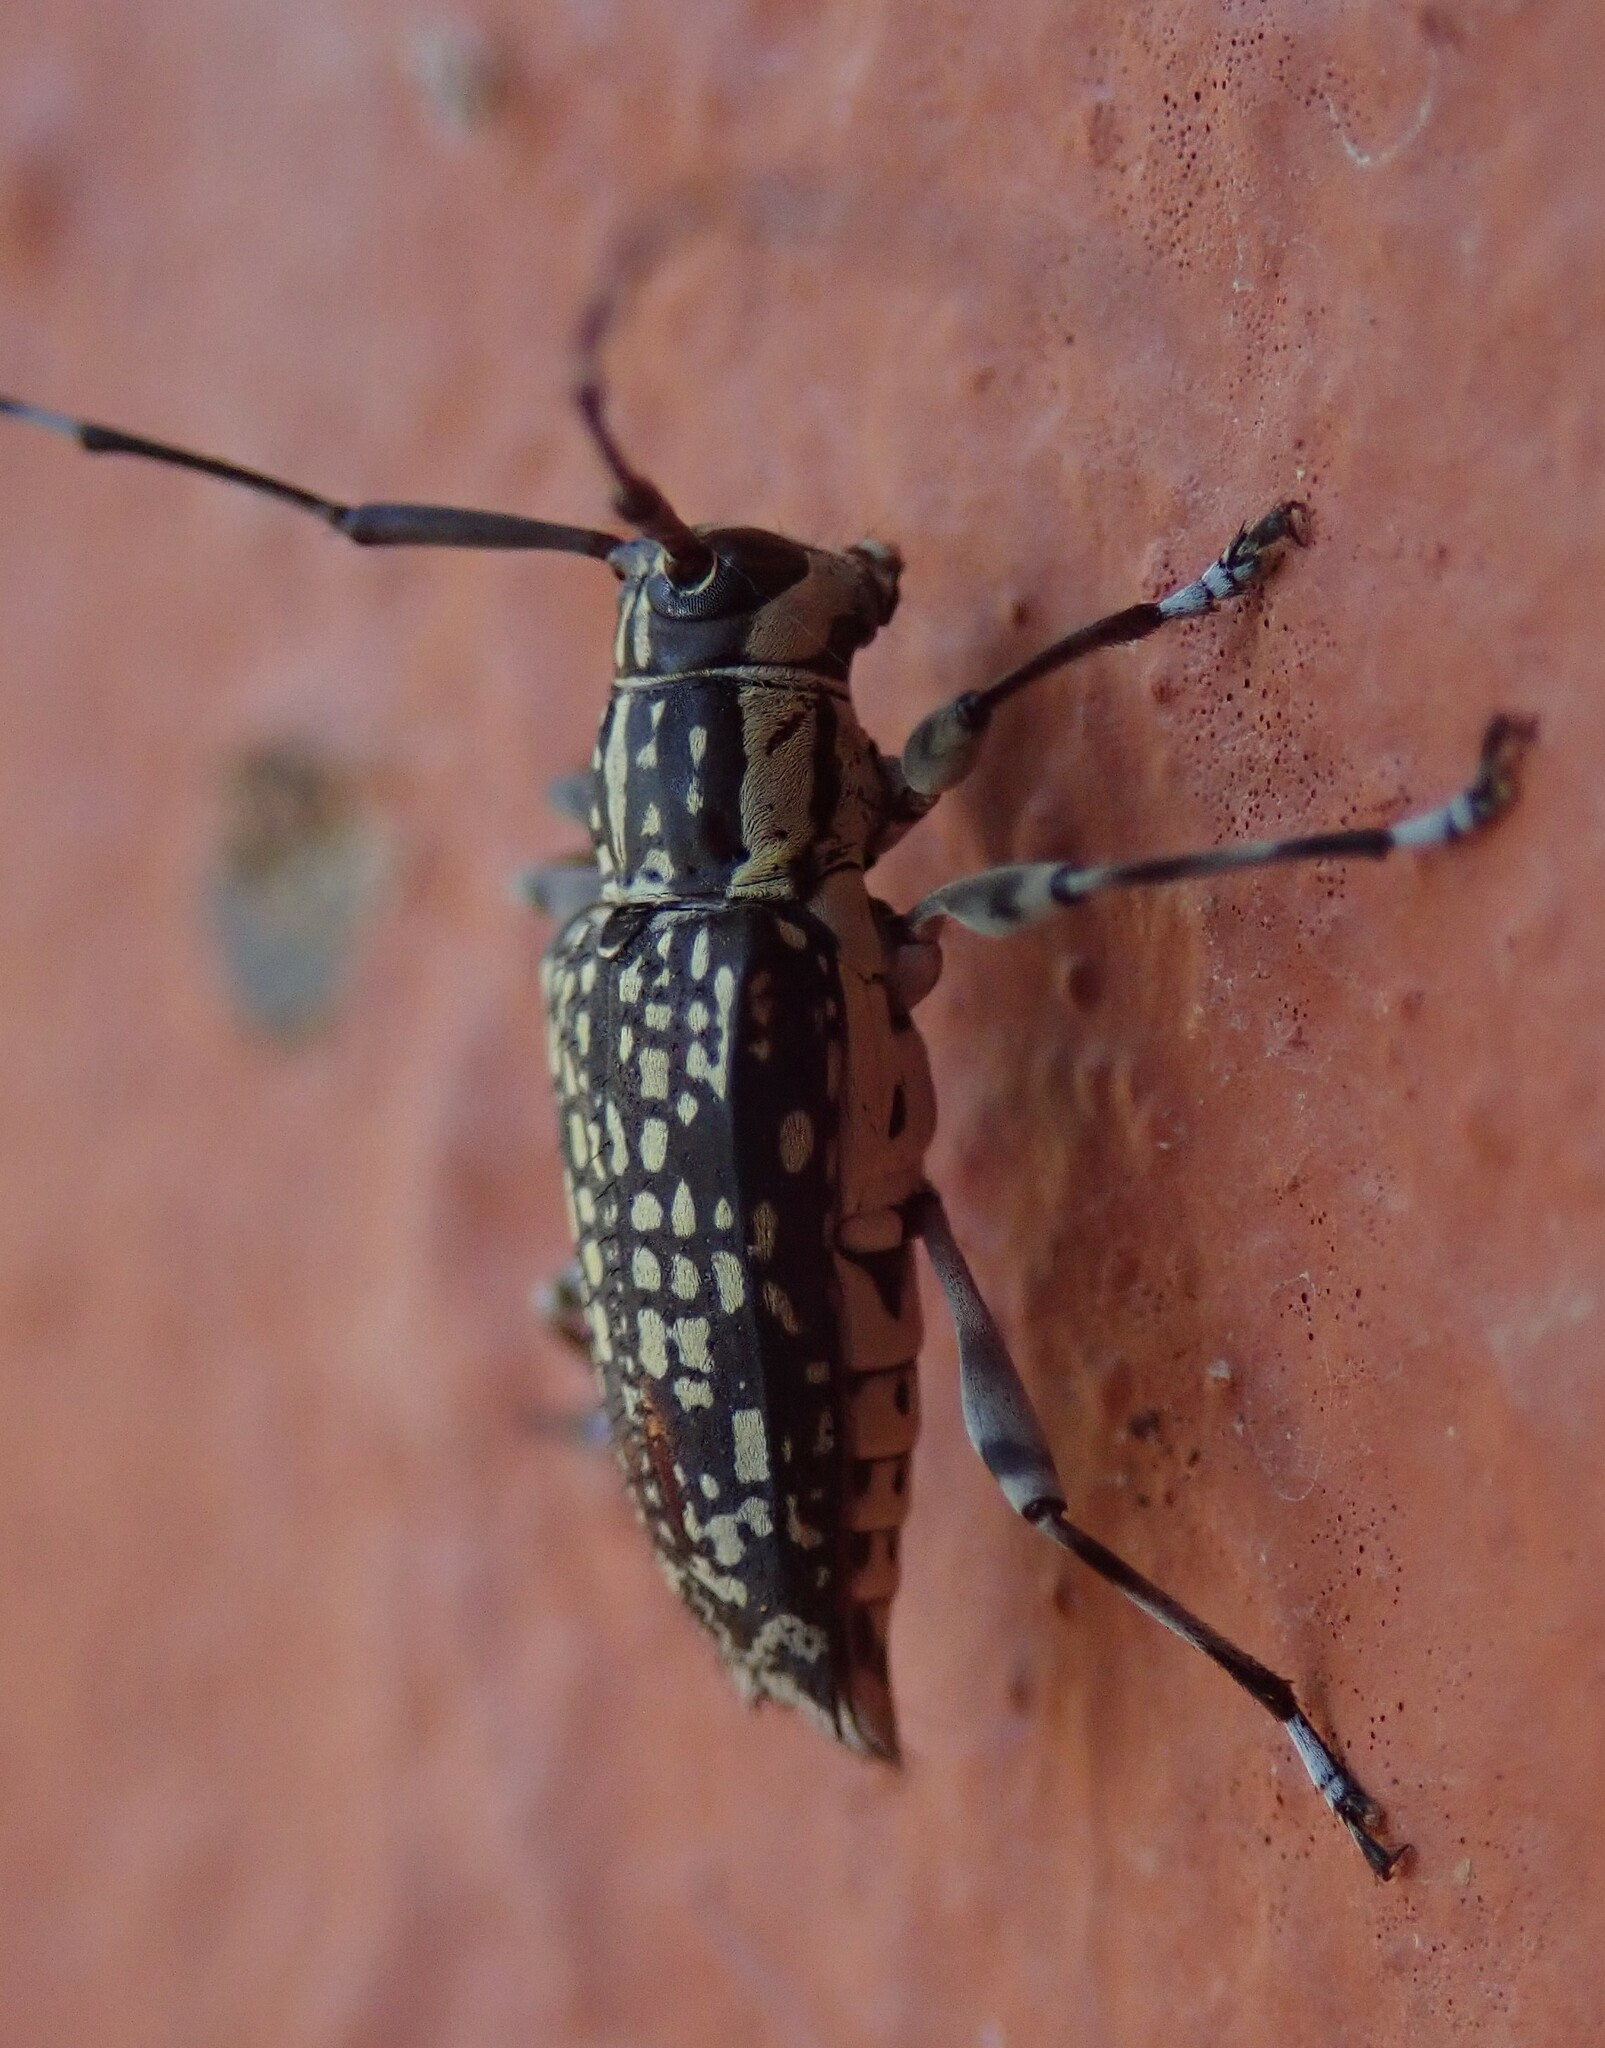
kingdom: Animalia
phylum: Arthropoda
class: Insecta
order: Coleoptera
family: Cerambycidae
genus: Colobothea
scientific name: Colobothea rincona
